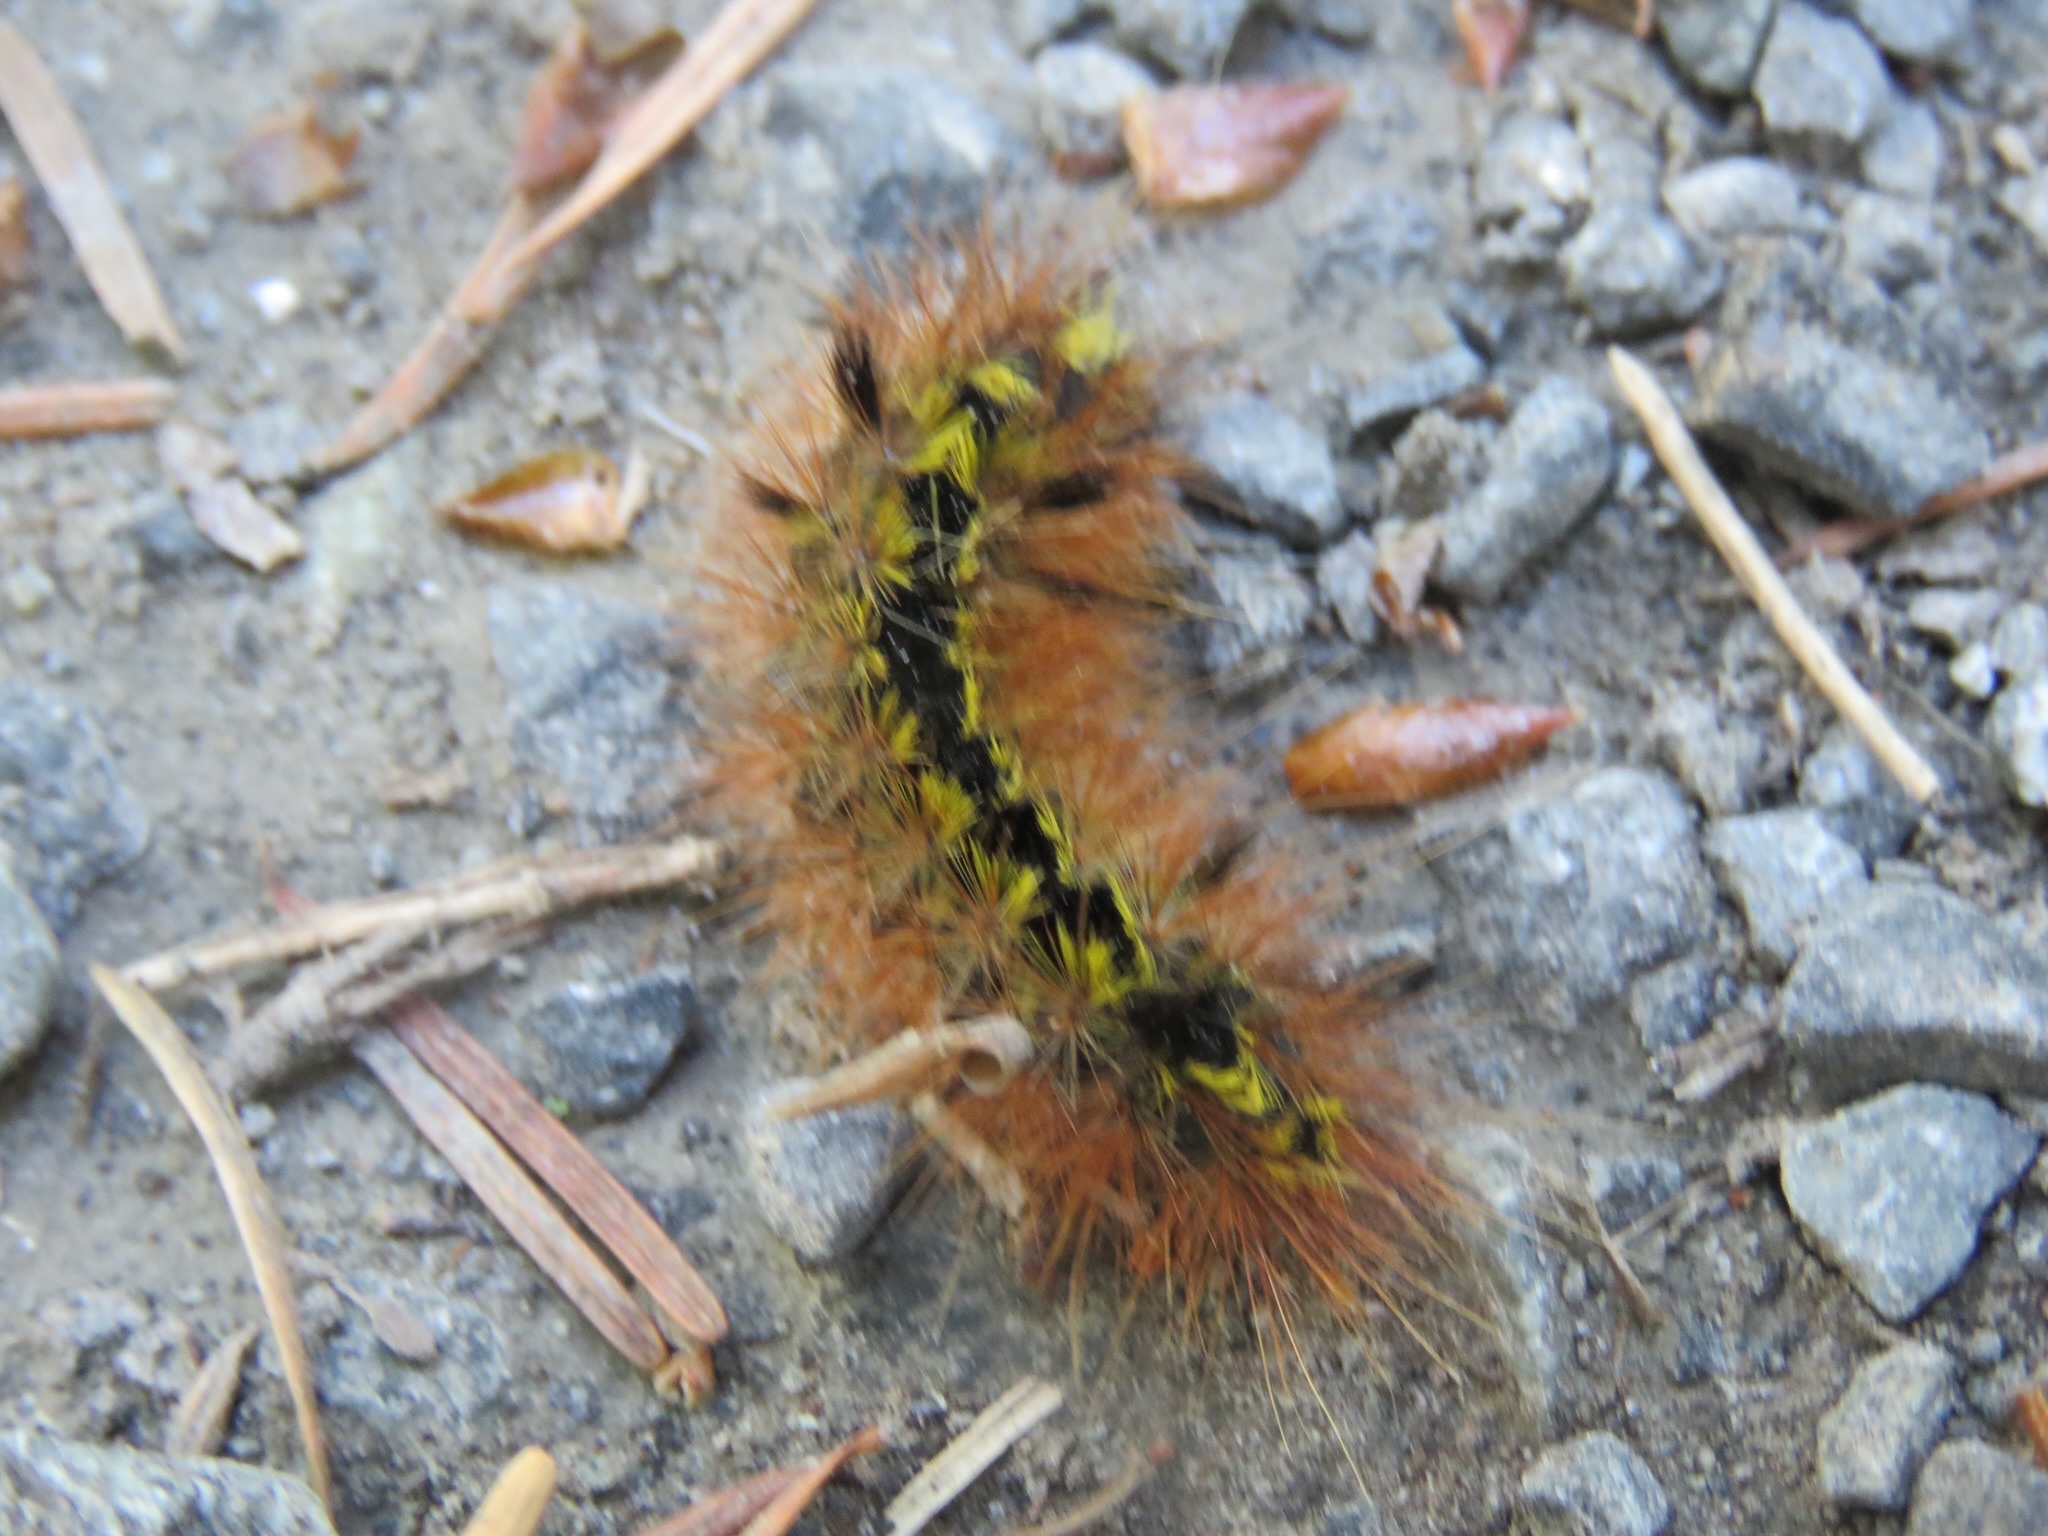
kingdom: Animalia
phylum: Arthropoda
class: Insecta
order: Lepidoptera
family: Erebidae
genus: Lophocampa
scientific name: Lophocampa argentata
